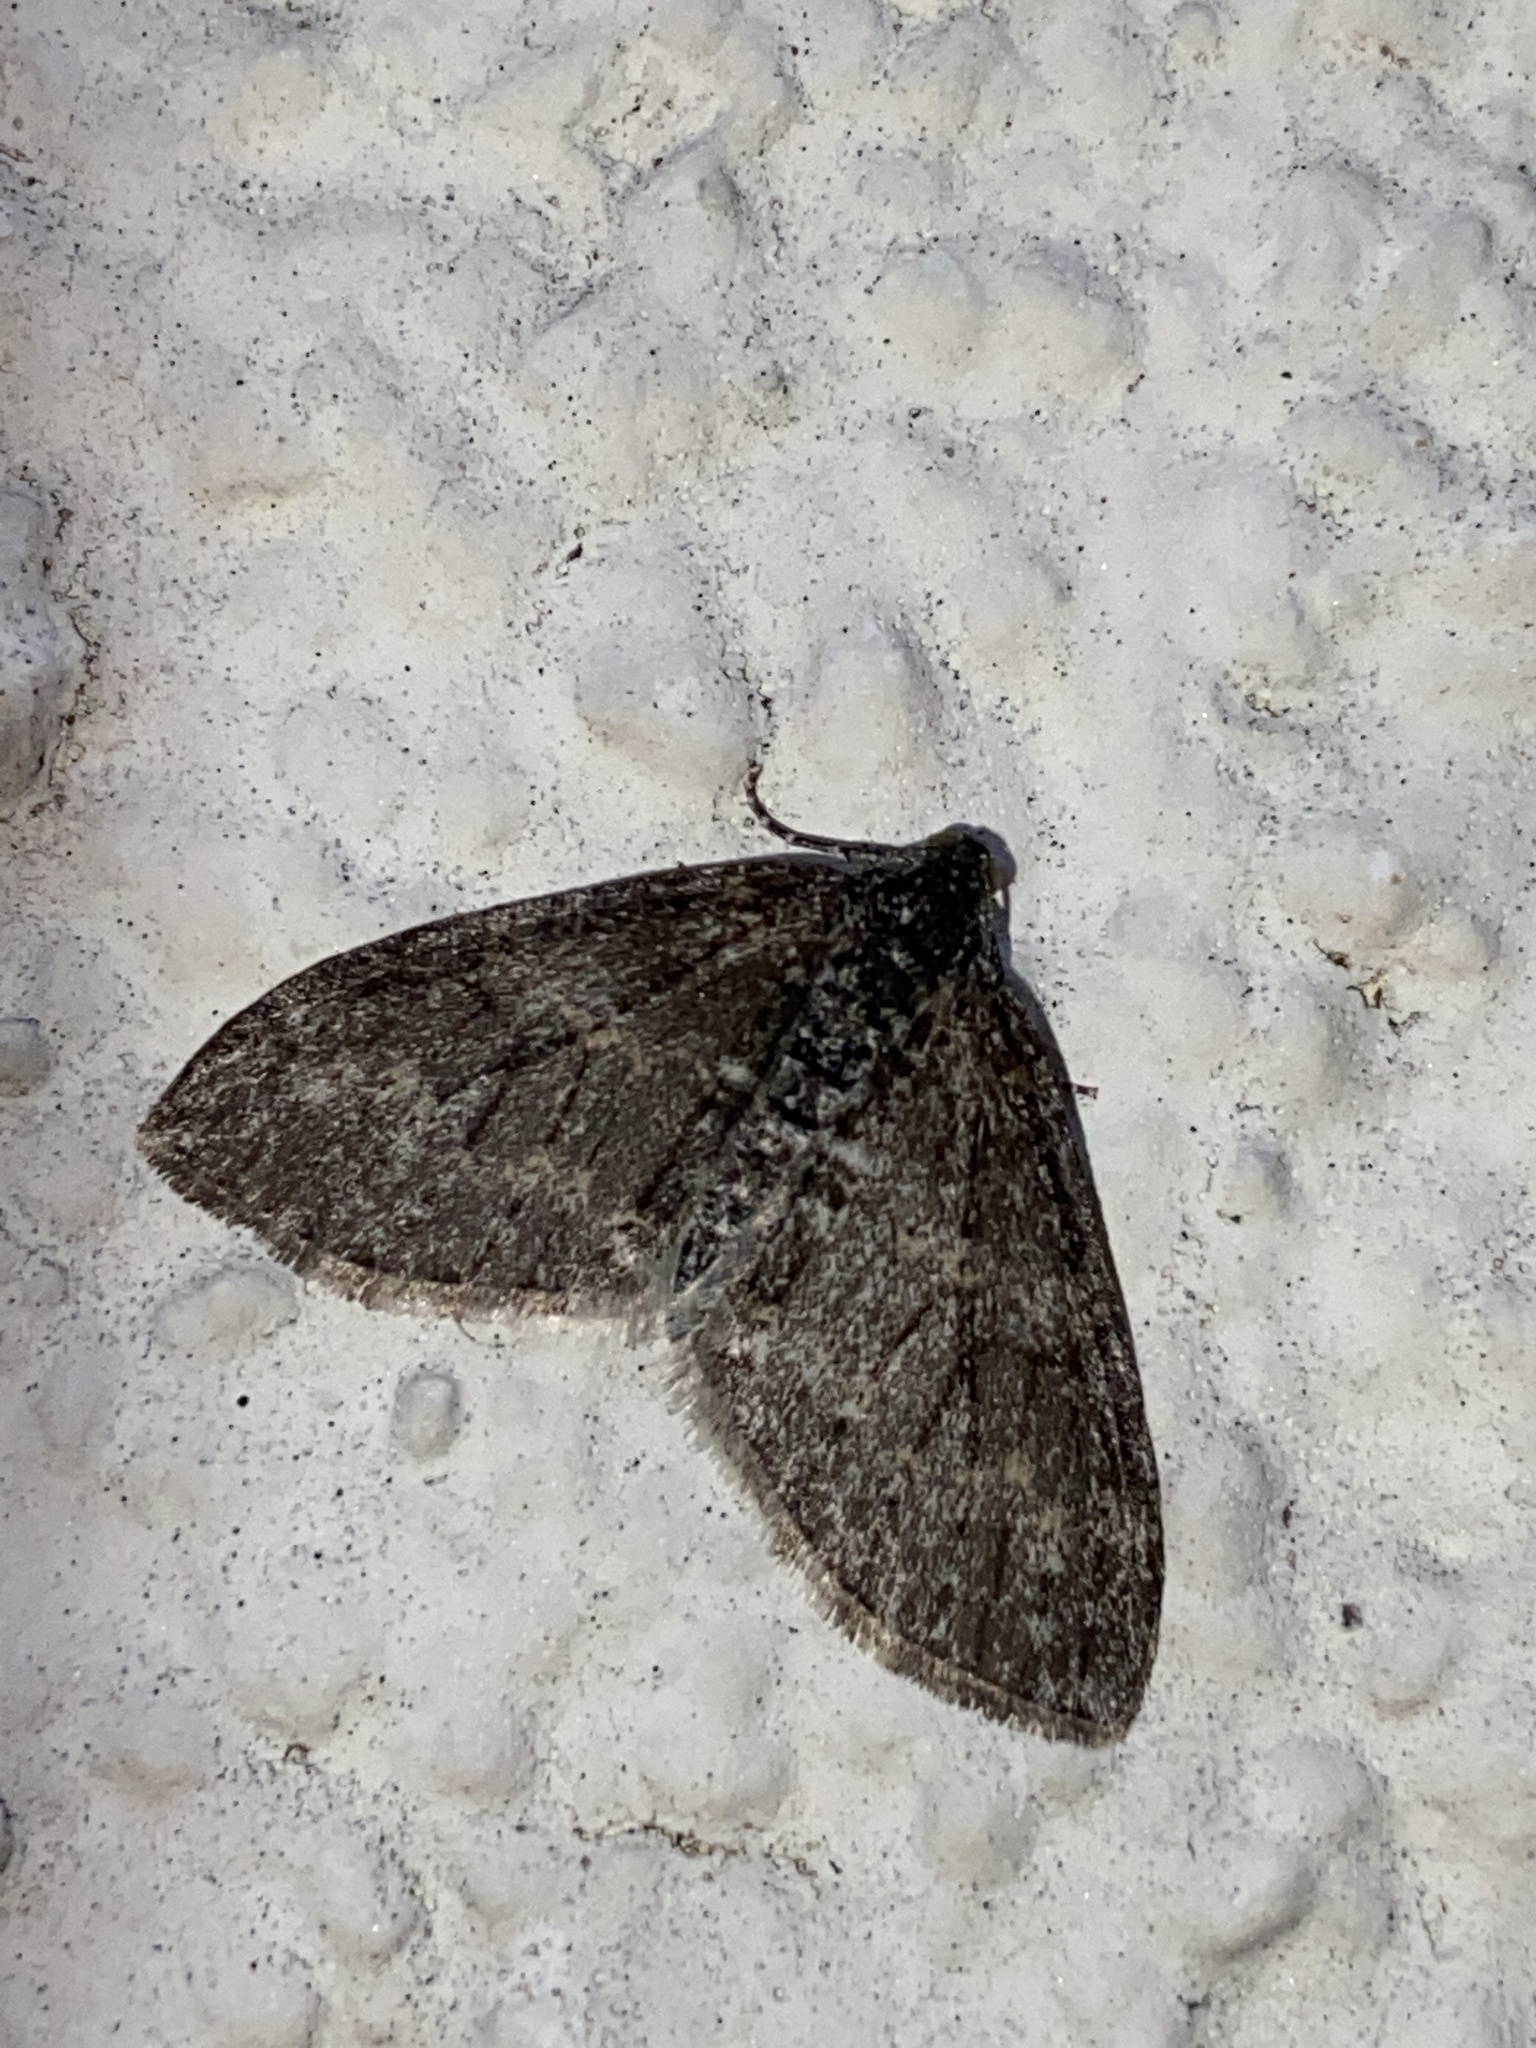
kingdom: Animalia
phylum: Arthropoda
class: Insecta
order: Lepidoptera
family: Geometridae
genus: Lobophora
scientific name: Lobophora halterata
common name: Seraphim
